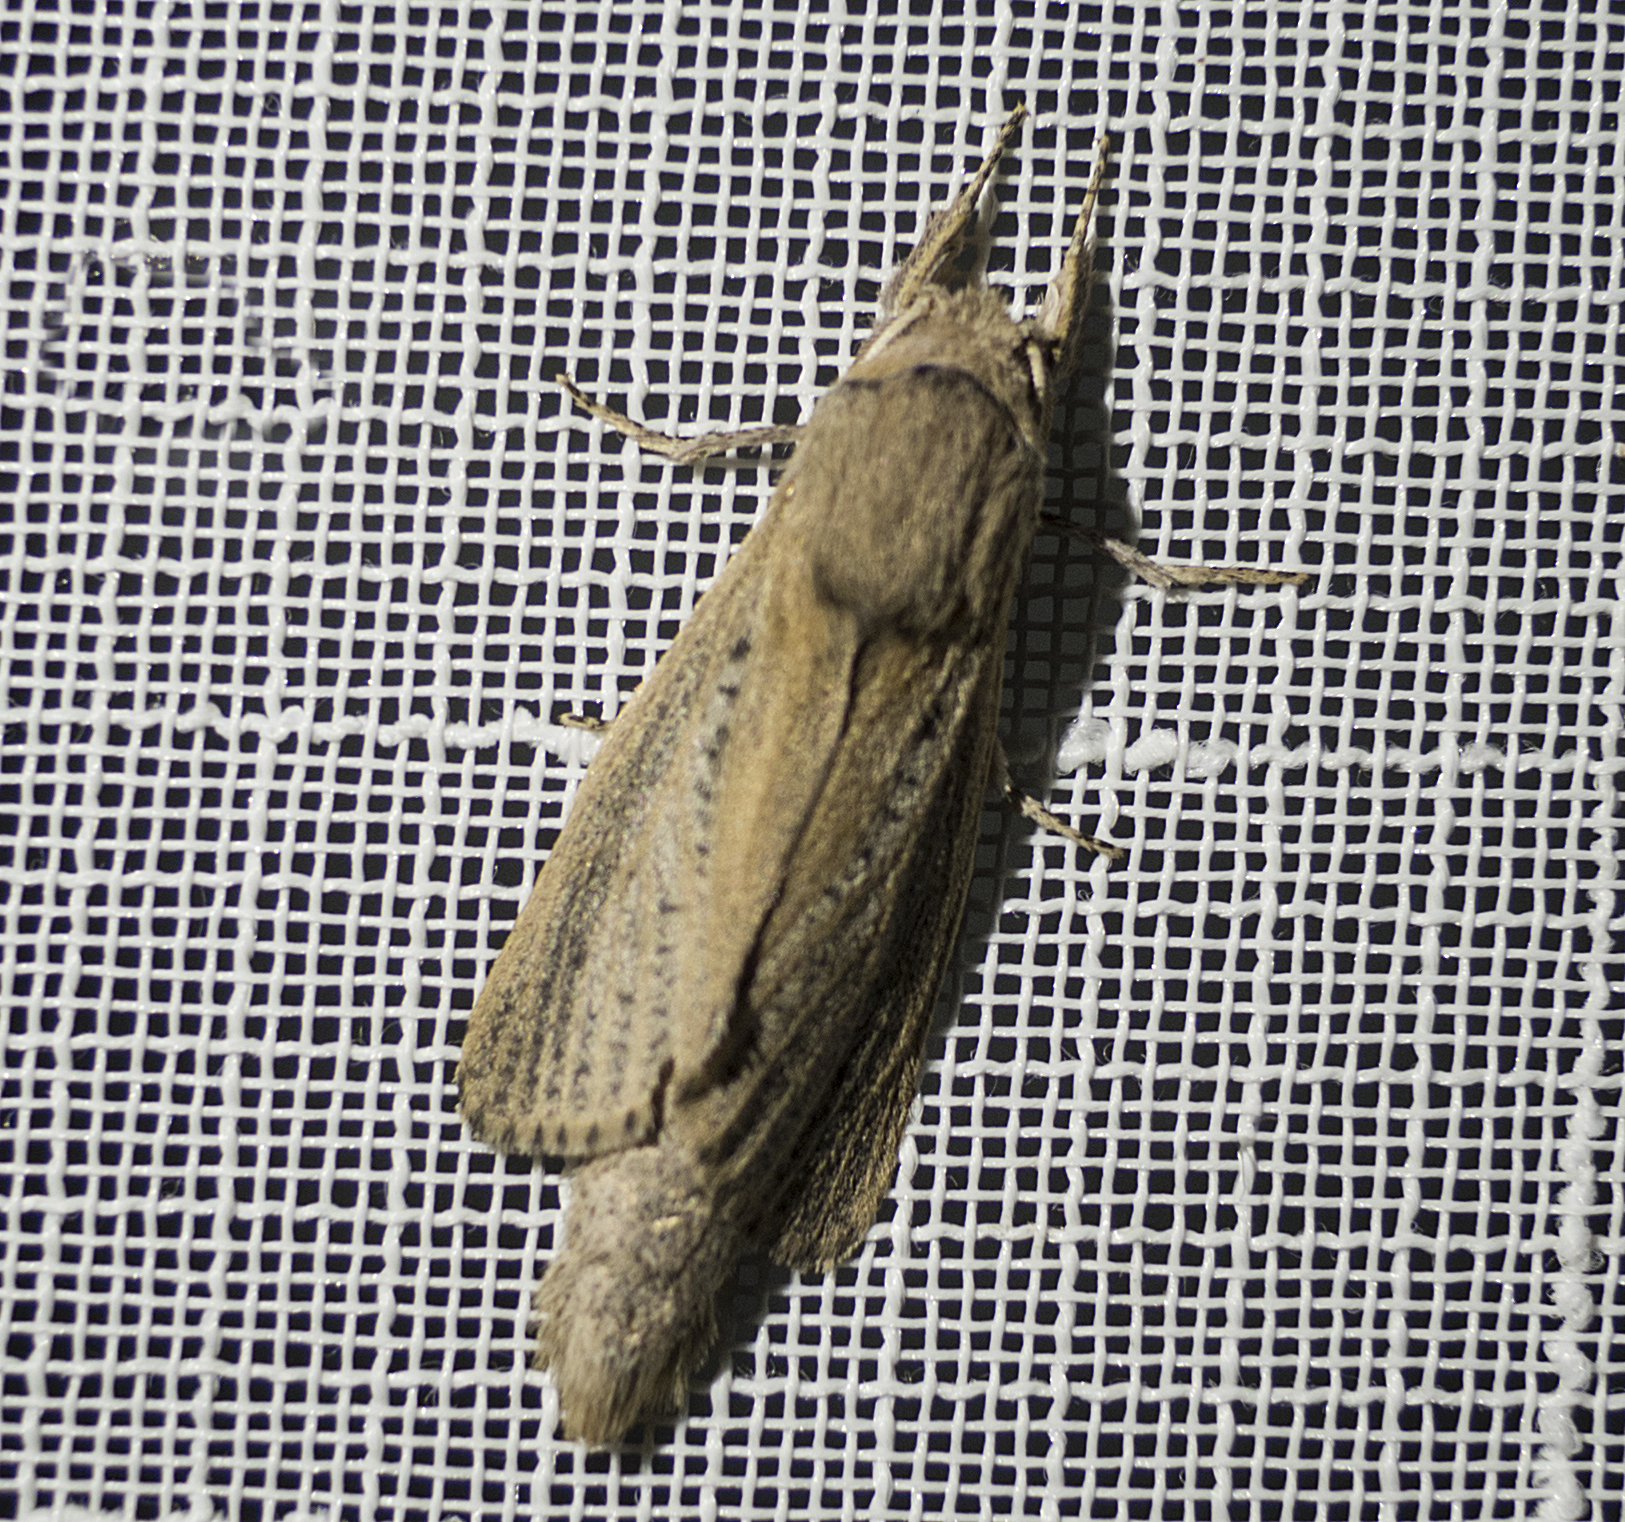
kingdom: Animalia
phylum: Arthropoda
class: Insecta
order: Lepidoptera
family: Cossidae
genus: Phragmataecia
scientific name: Phragmataecia castaneae
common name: Reed leopard
